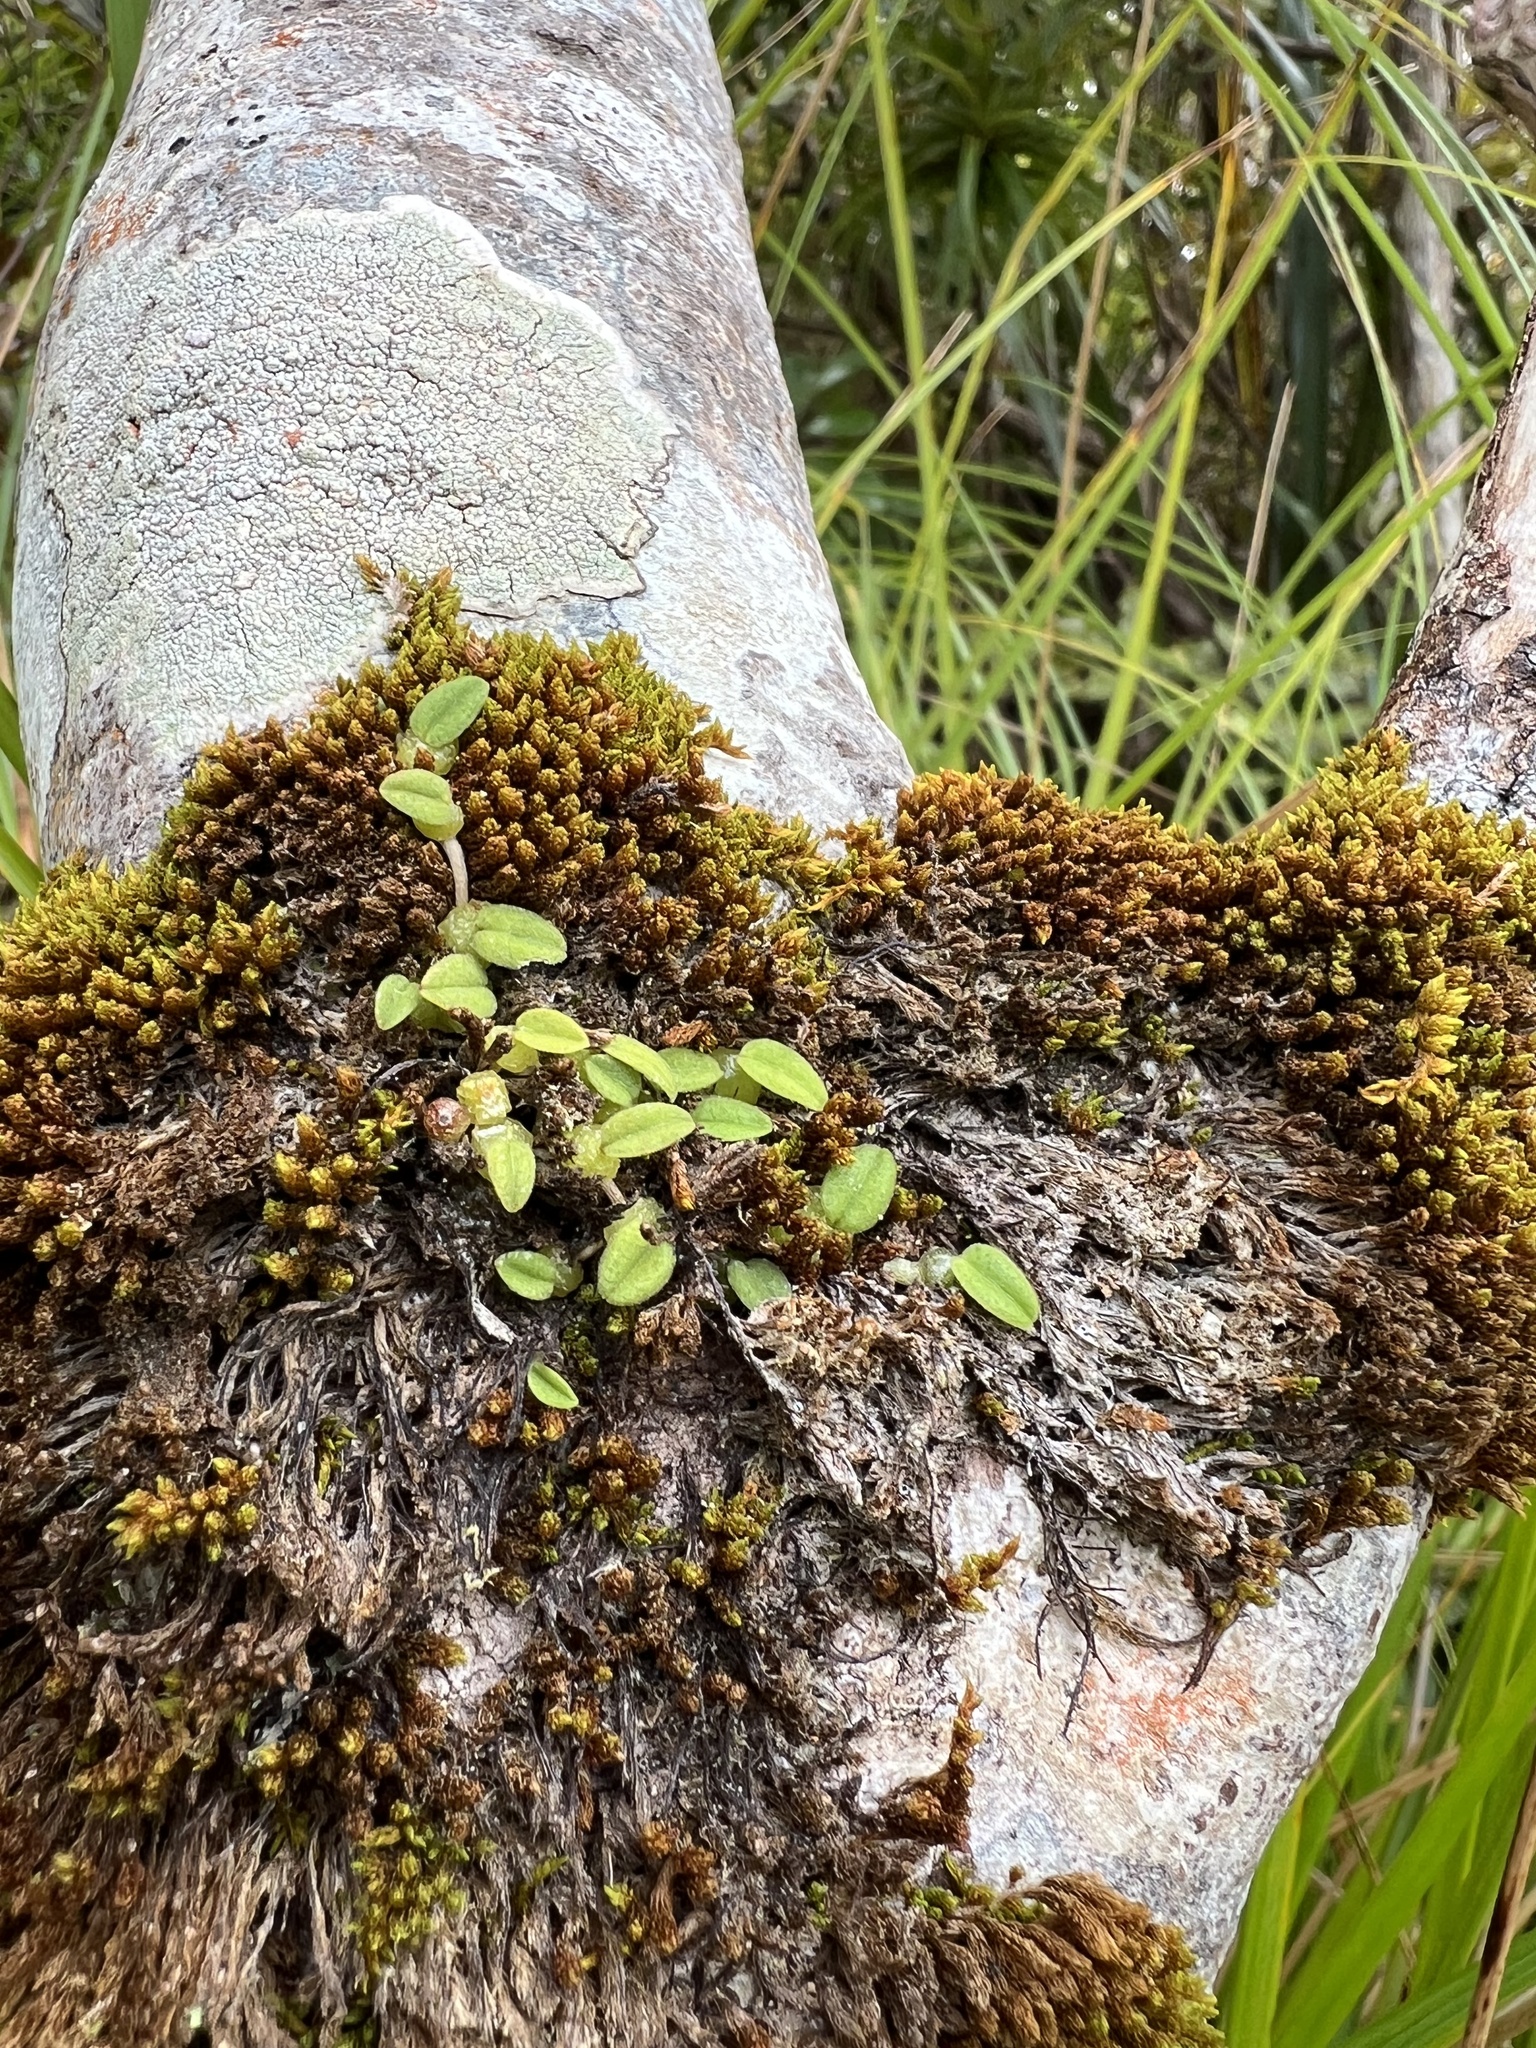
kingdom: Plantae
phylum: Tracheophyta
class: Liliopsida
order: Asparagales
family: Orchidaceae
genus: Bulbophyllum
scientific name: Bulbophyllum pygmaeum
